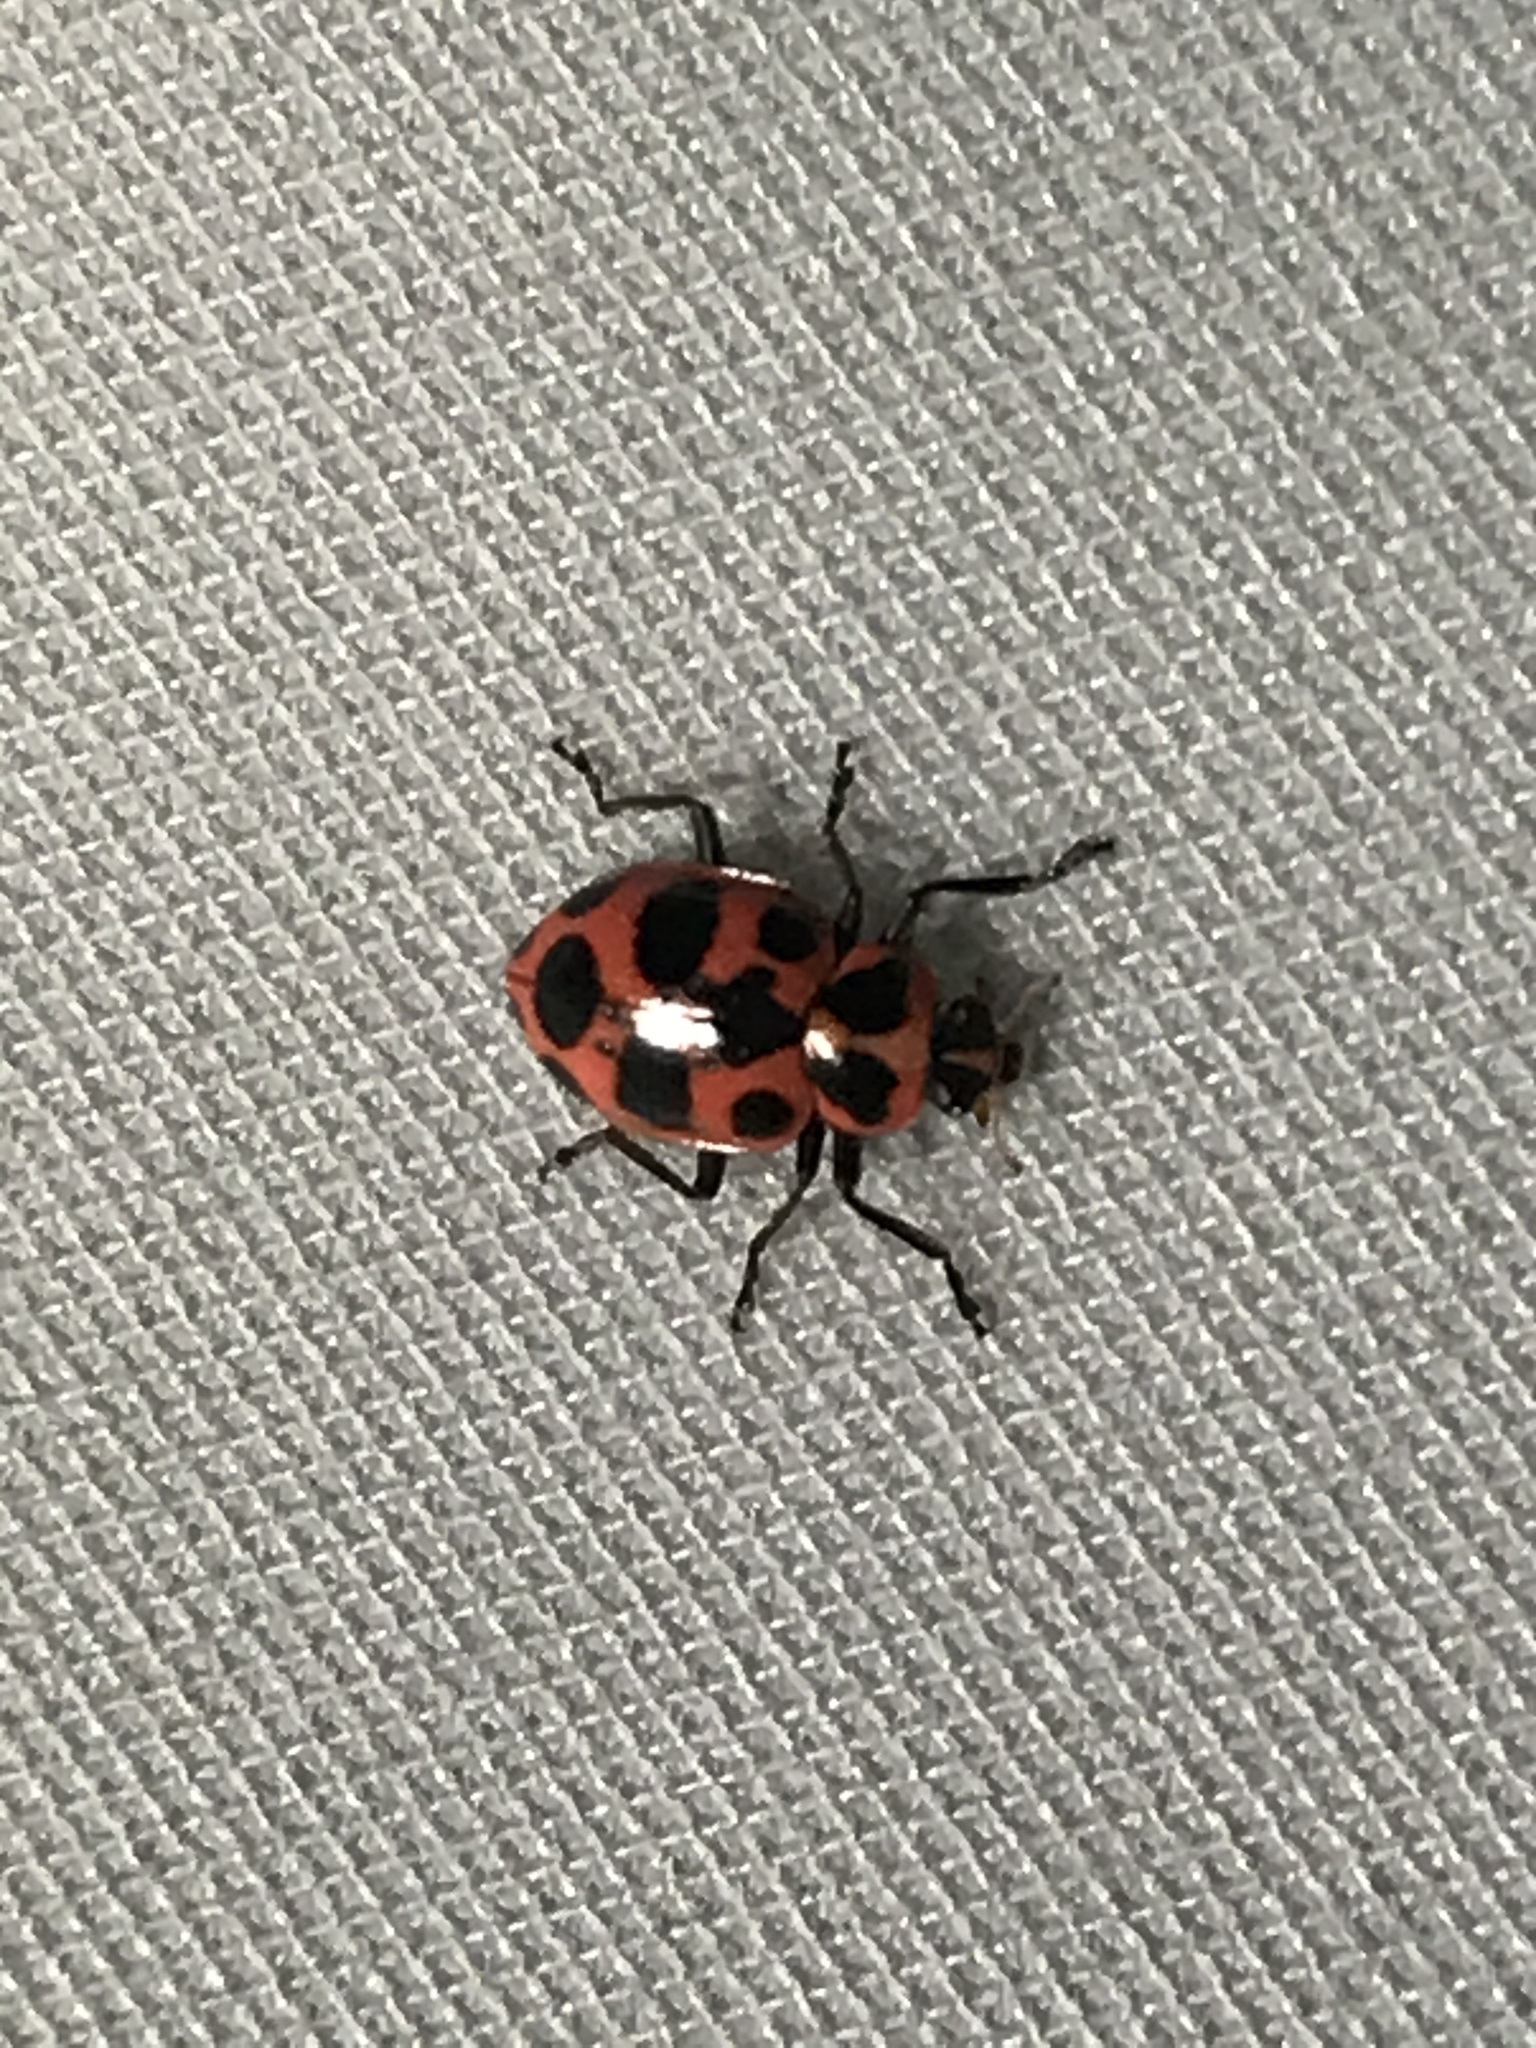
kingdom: Animalia
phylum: Arthropoda
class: Insecta
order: Coleoptera
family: Coccinellidae
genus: Coleomegilla
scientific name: Coleomegilla maculata
